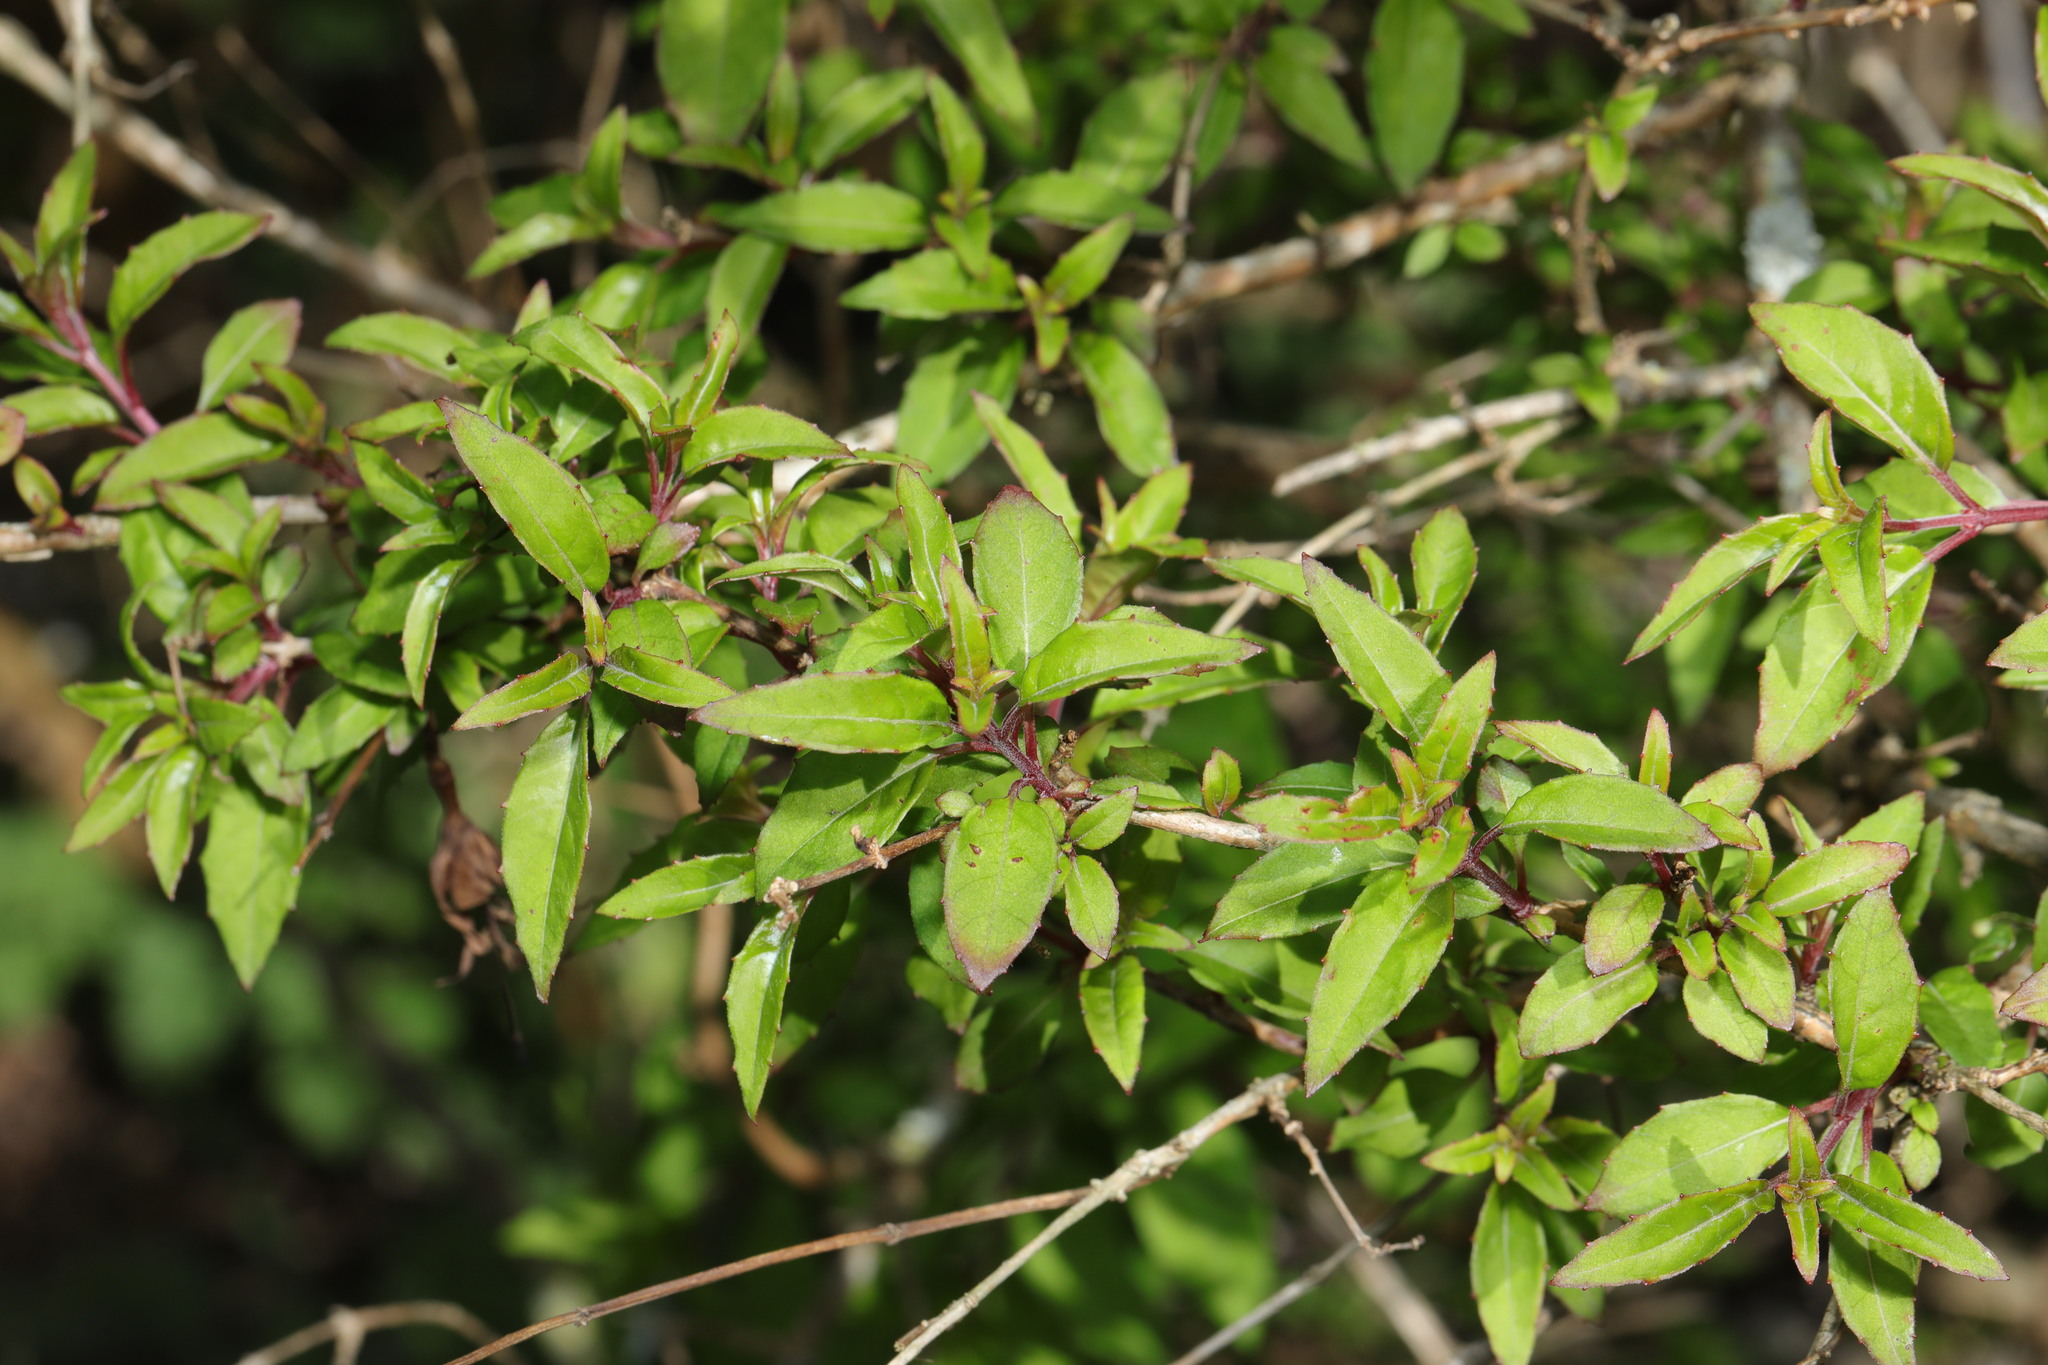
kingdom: Plantae
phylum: Tracheophyta
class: Magnoliopsida
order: Myrtales
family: Onagraceae
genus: Fuchsia
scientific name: Fuchsia magellanica
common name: Hardy fuchsia
